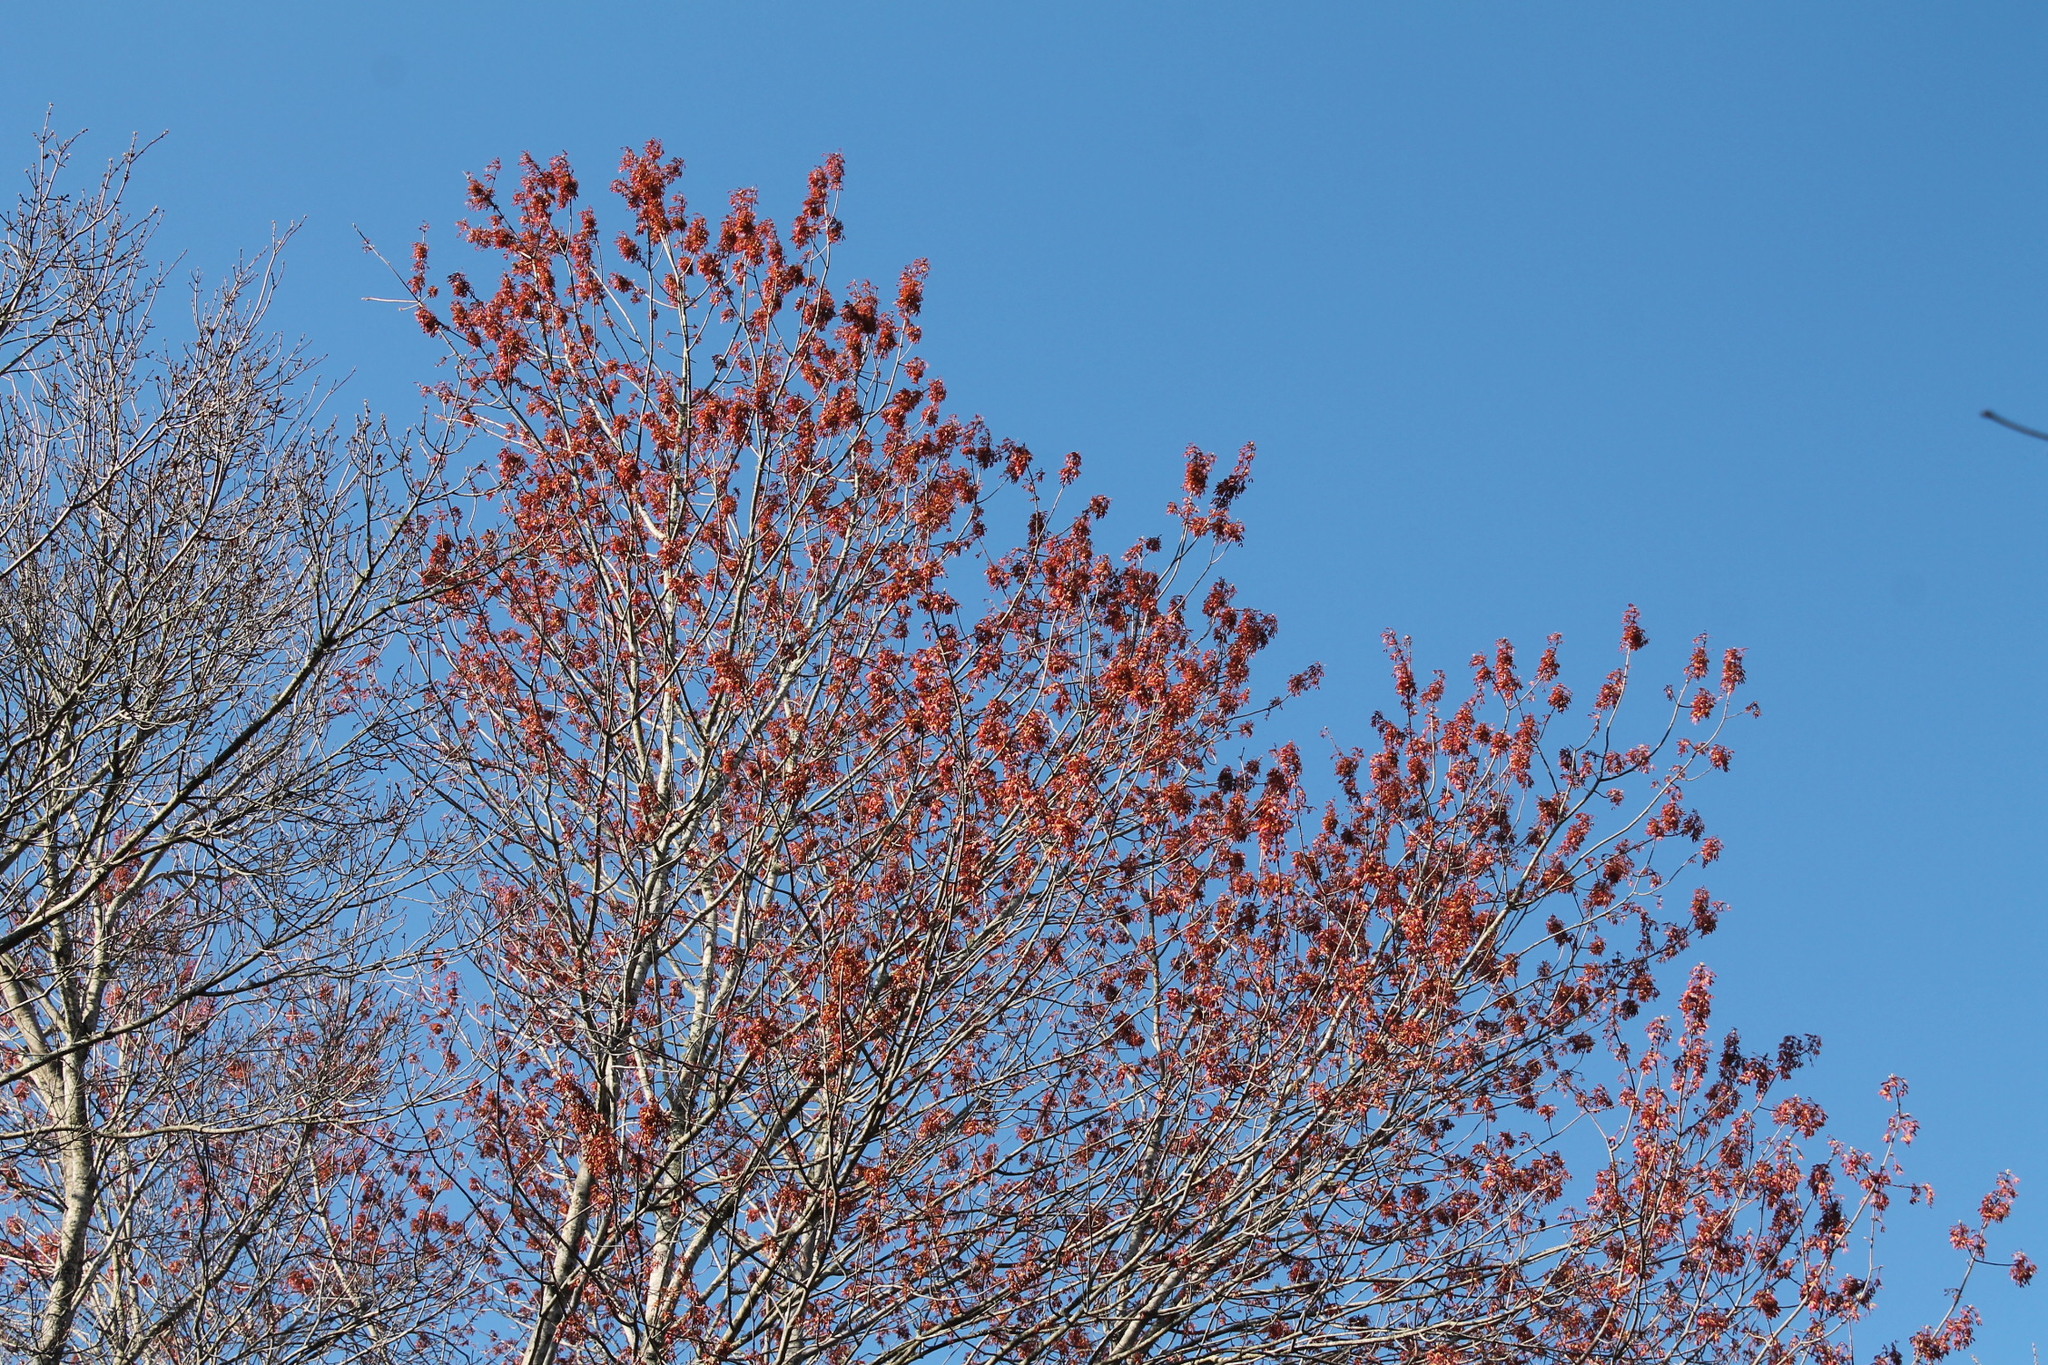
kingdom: Plantae
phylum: Tracheophyta
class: Magnoliopsida
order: Sapindales
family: Sapindaceae
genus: Acer
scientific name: Acer rubrum
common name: Red maple
